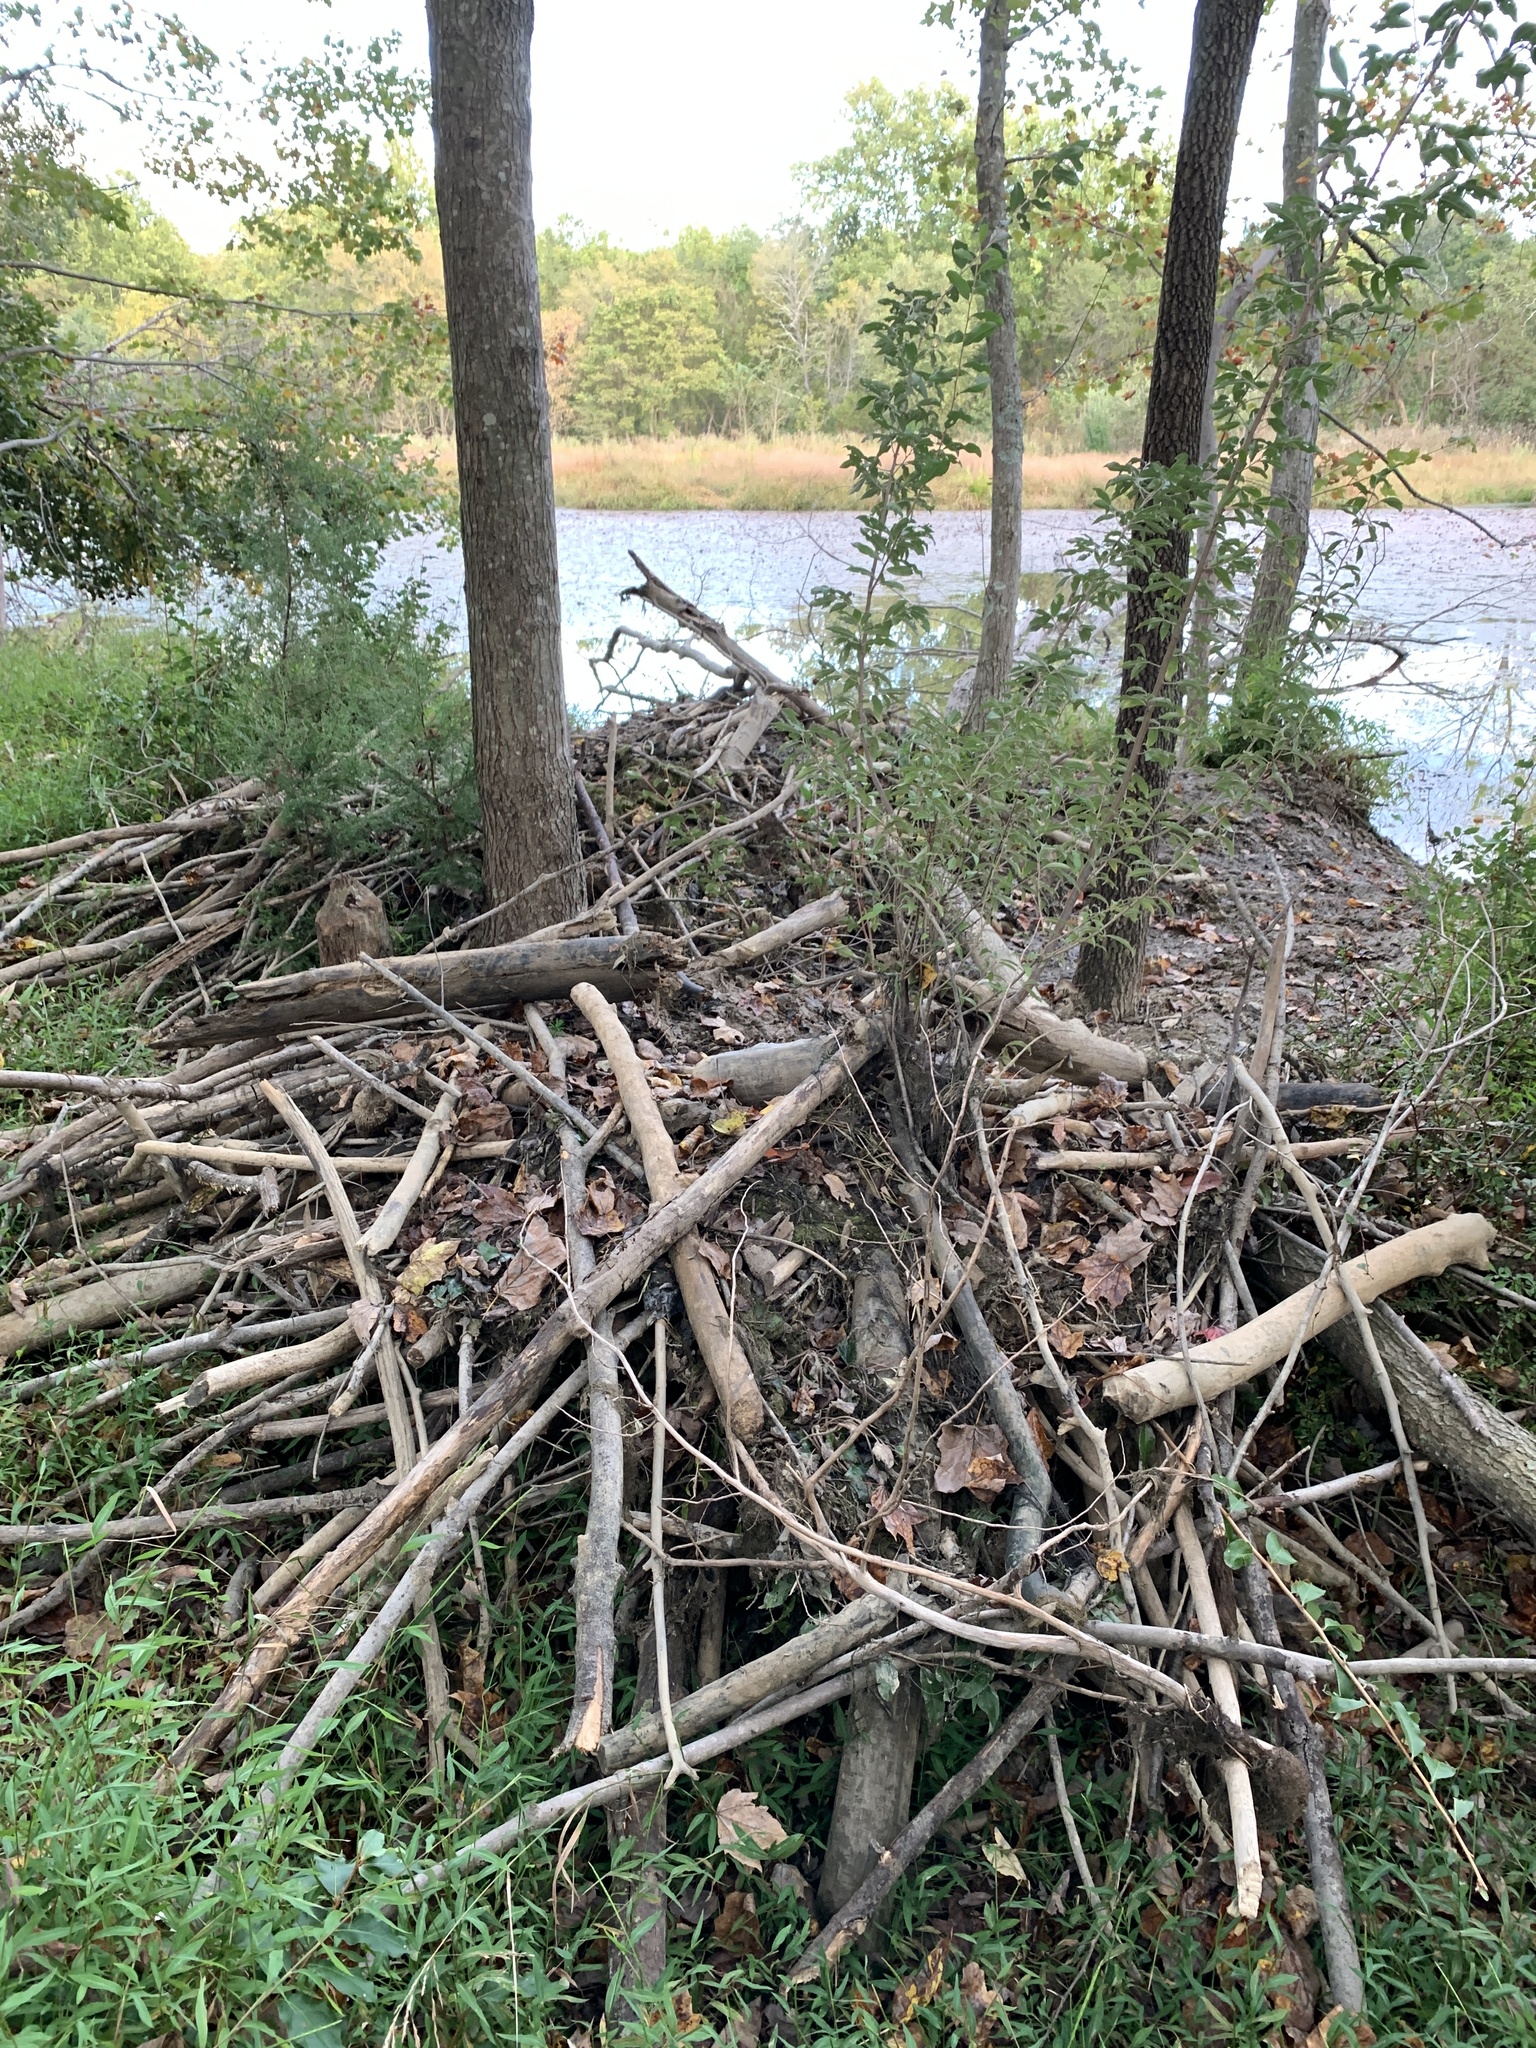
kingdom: Animalia
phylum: Chordata
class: Mammalia
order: Rodentia
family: Castoridae
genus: Castor
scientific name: Castor canadensis
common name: American beaver
